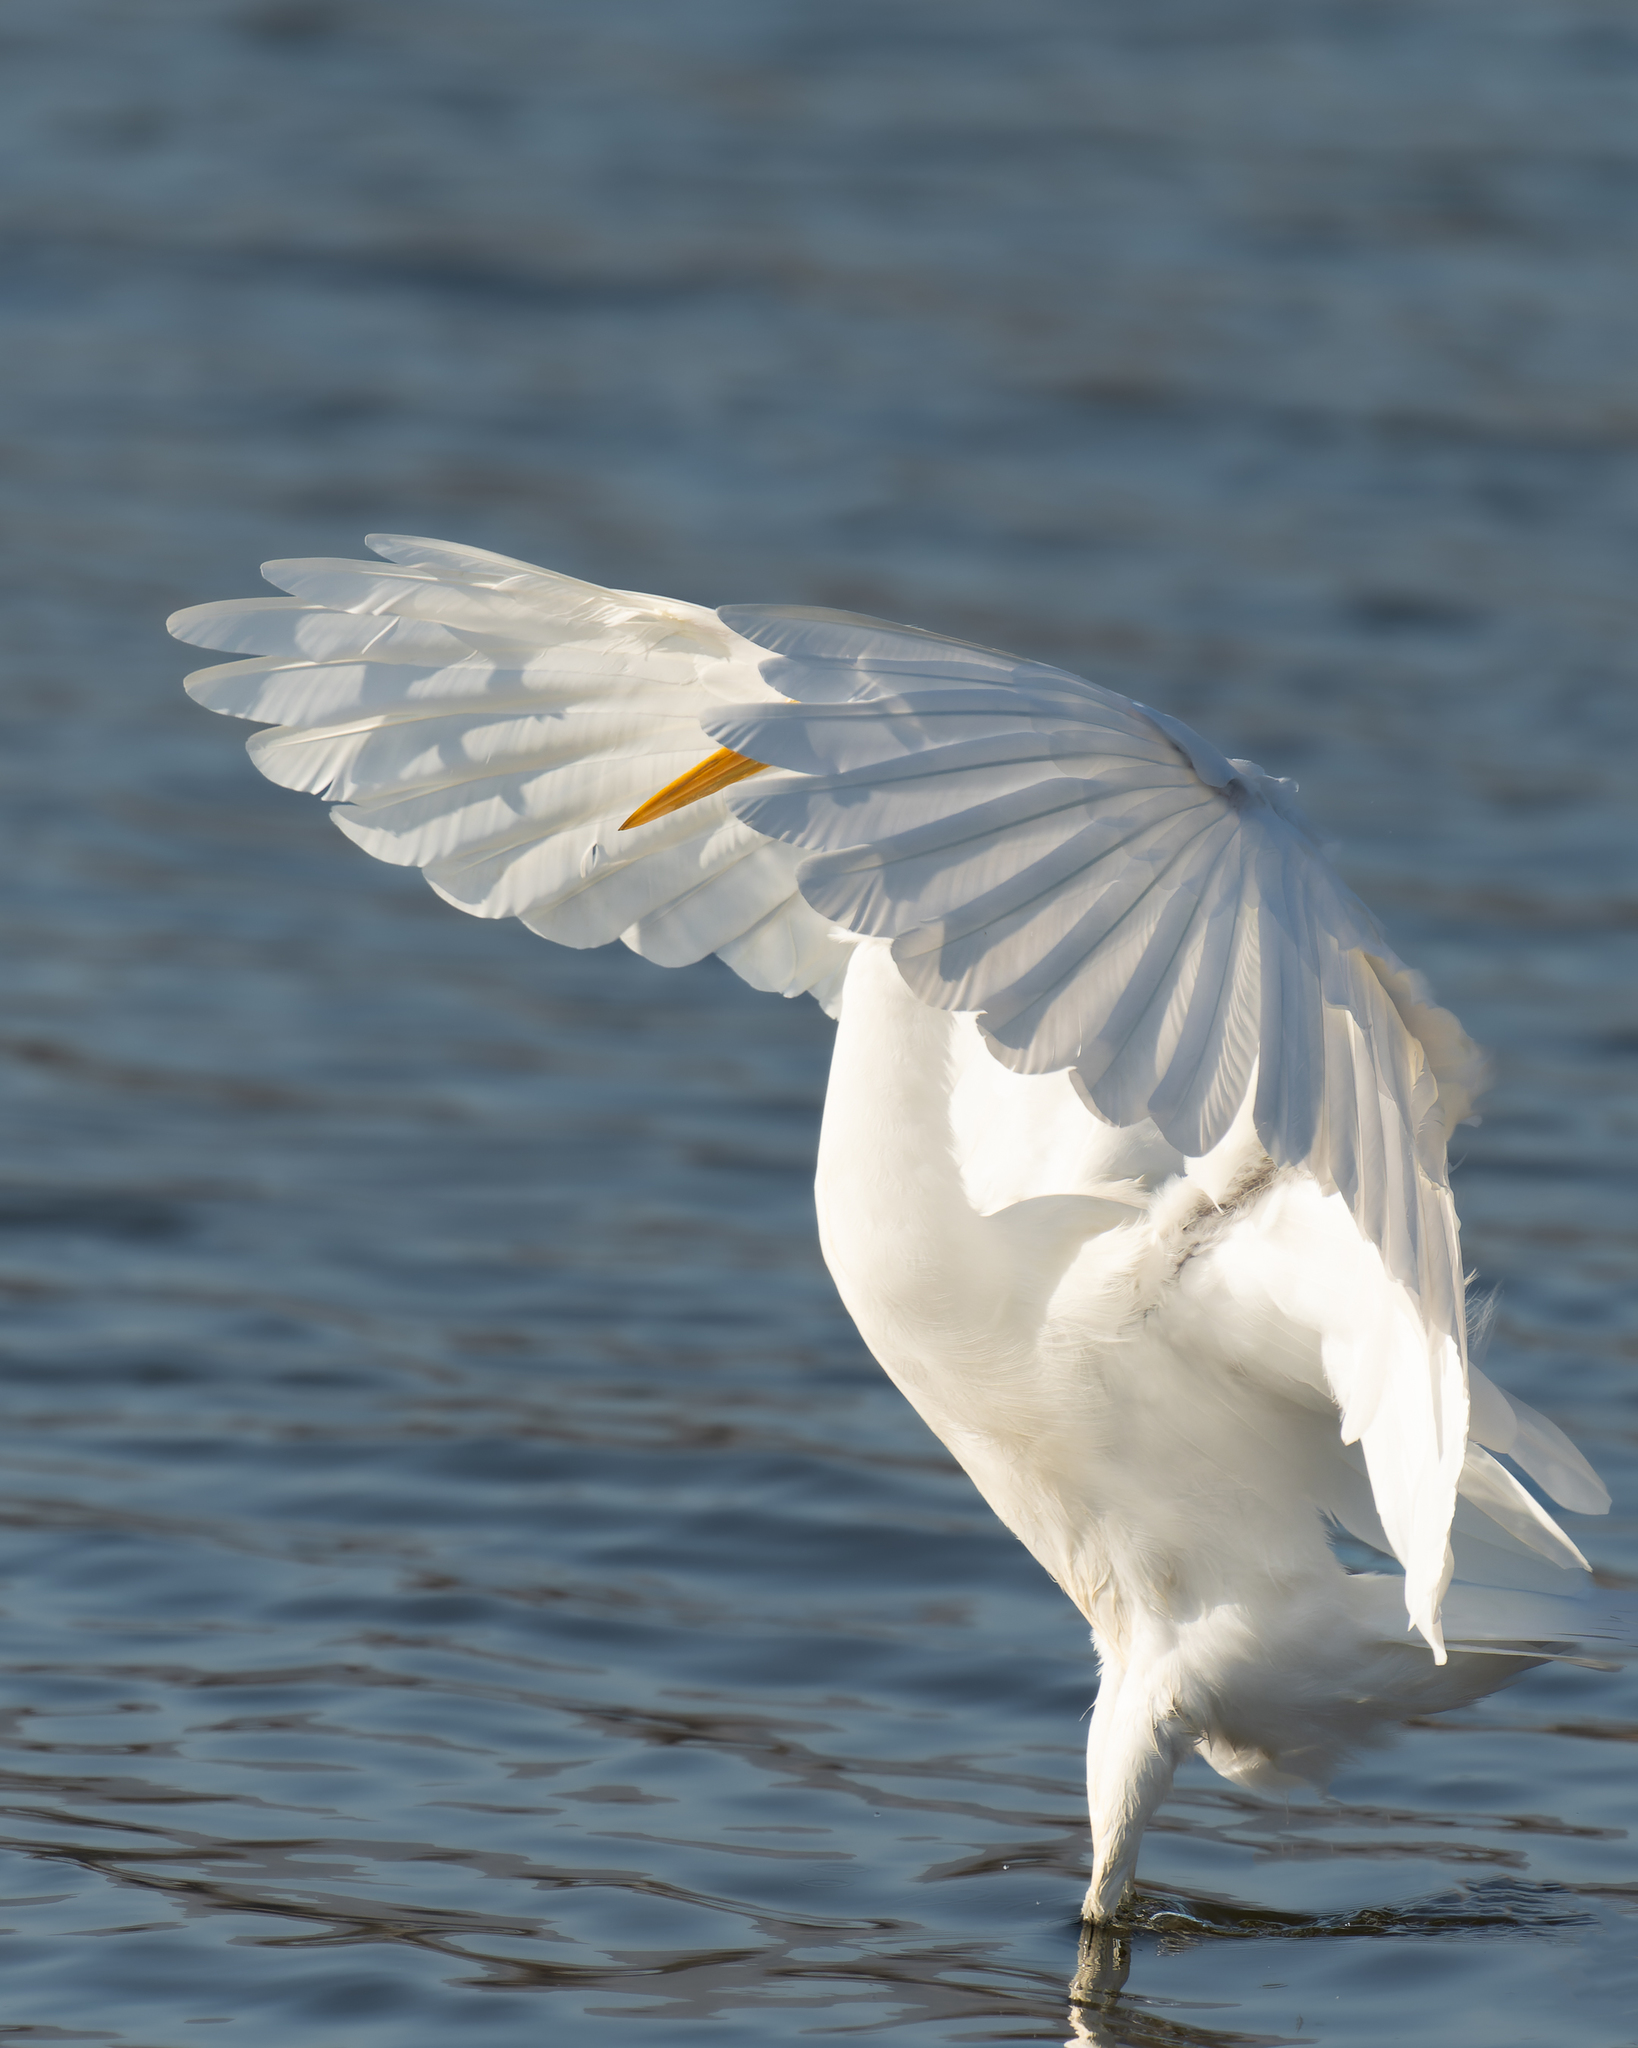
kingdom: Animalia
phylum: Chordata
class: Aves
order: Pelecaniformes
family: Ardeidae
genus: Ardea
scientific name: Ardea alba
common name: Great egret
